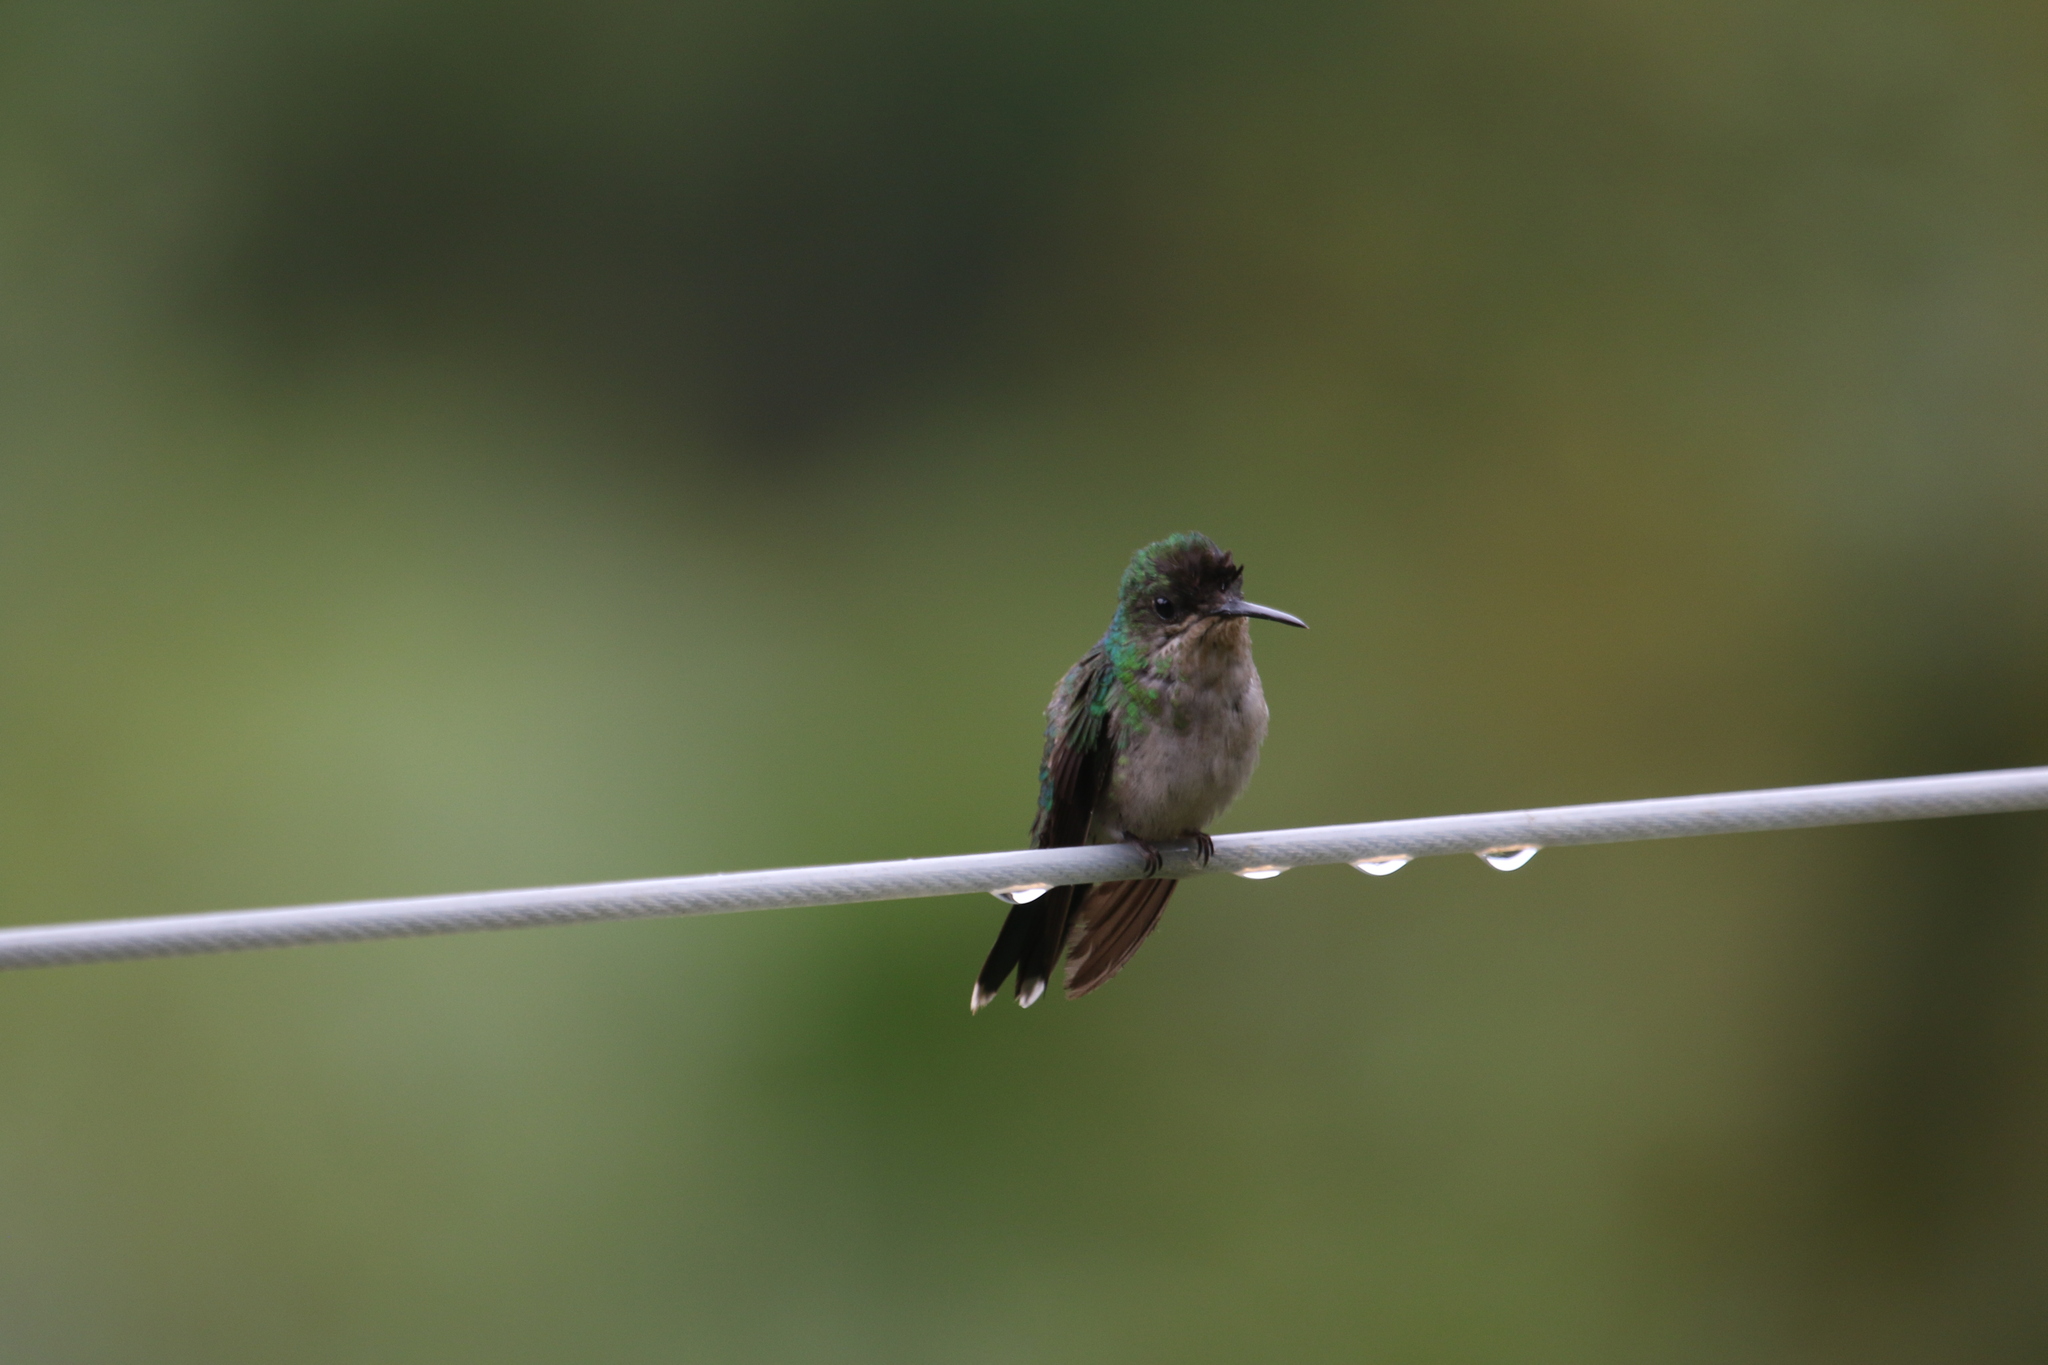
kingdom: Animalia
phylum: Chordata
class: Aves
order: Apodiformes
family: Trochilidae
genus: Thalurania
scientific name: Thalurania glaucopis
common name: Violet-capped woodnymph
